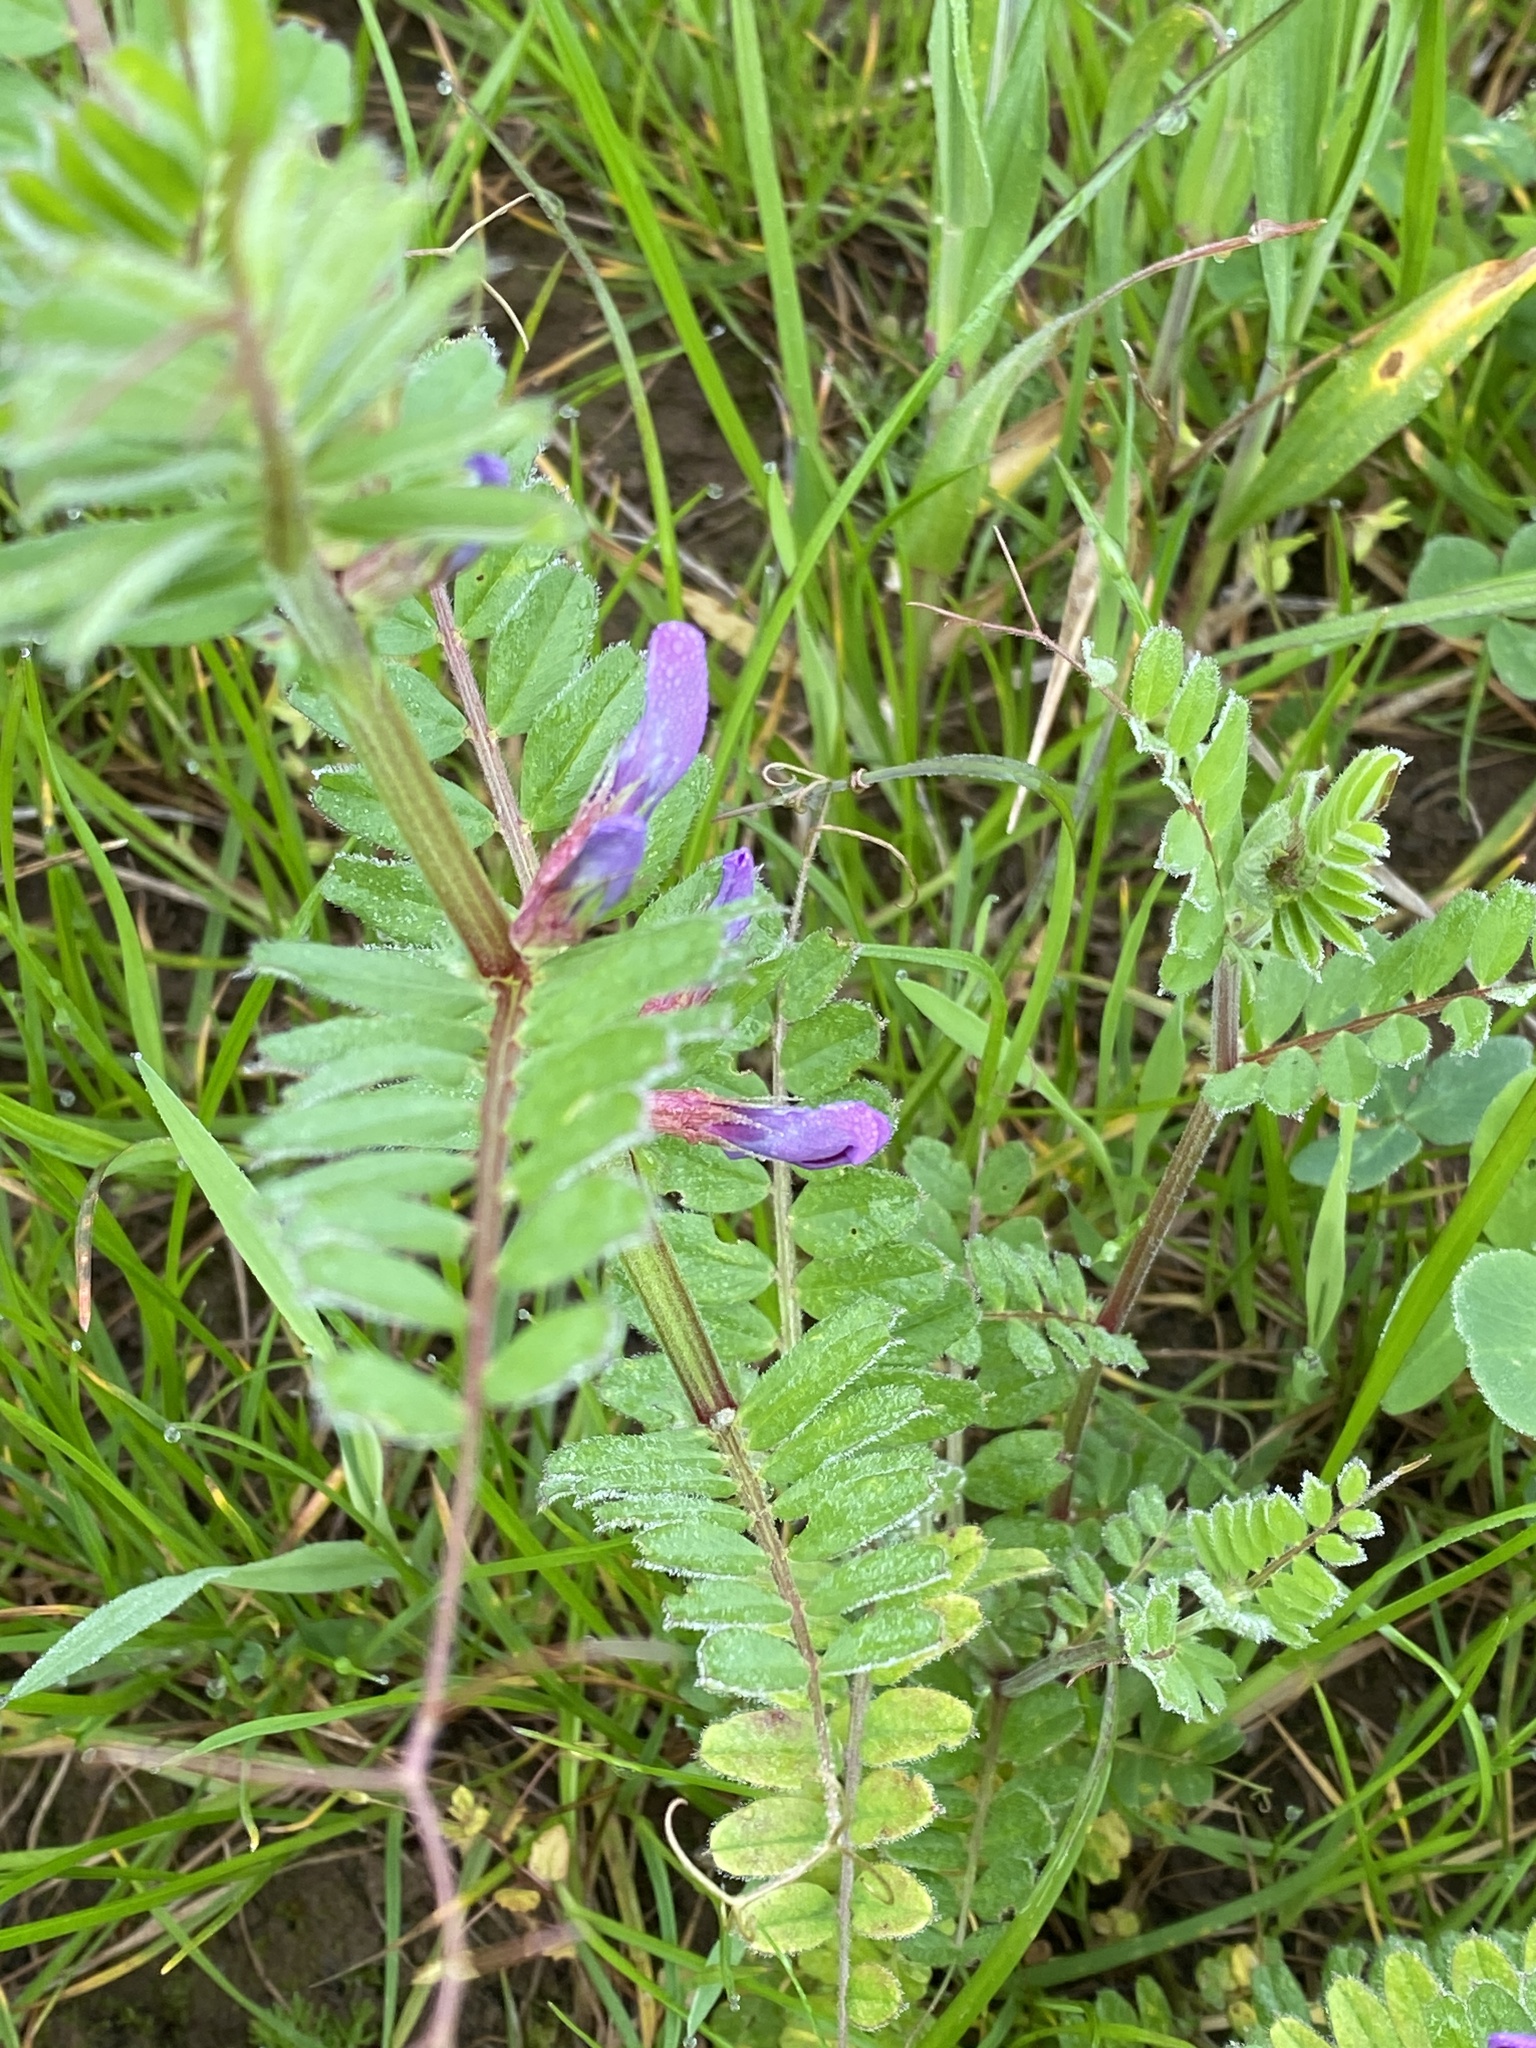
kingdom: Plantae
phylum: Tracheophyta
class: Magnoliopsida
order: Fabales
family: Fabaceae
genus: Vicia
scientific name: Vicia sativa
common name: Garden vetch
